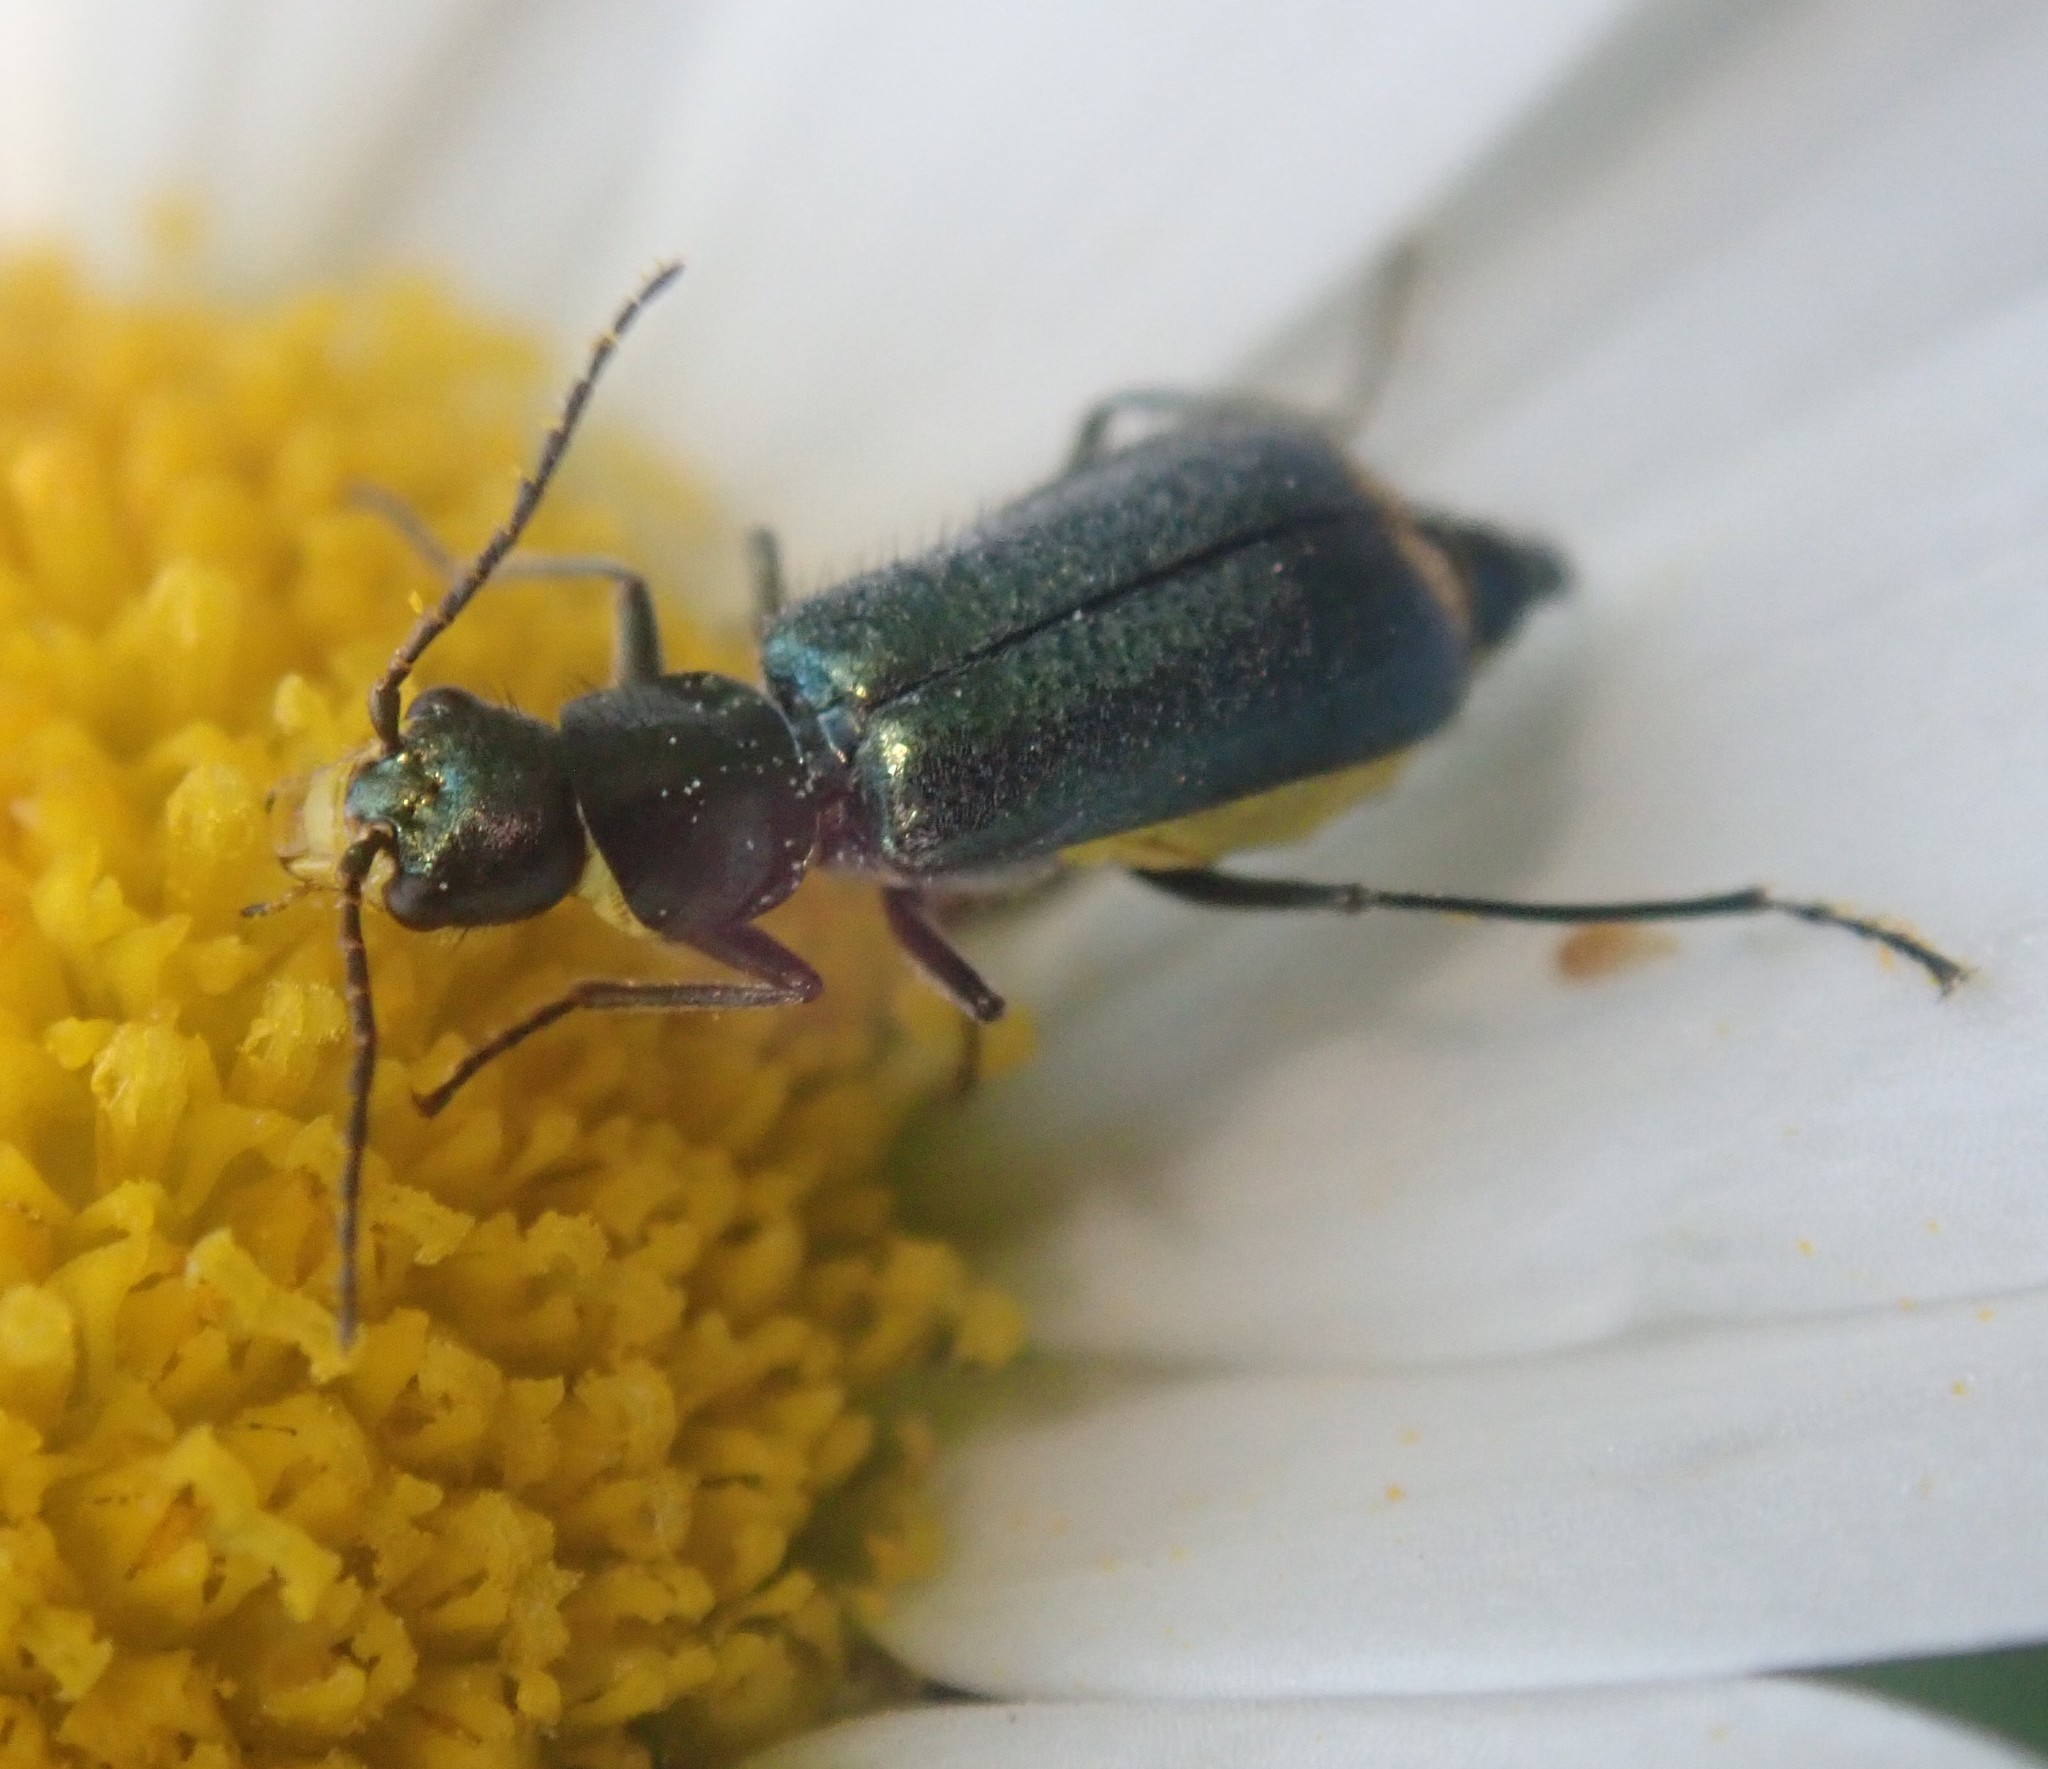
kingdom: Animalia
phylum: Arthropoda
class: Insecta
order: Coleoptera
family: Malachiidae
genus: Clanoptilus
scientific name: Clanoptilus marginellus
